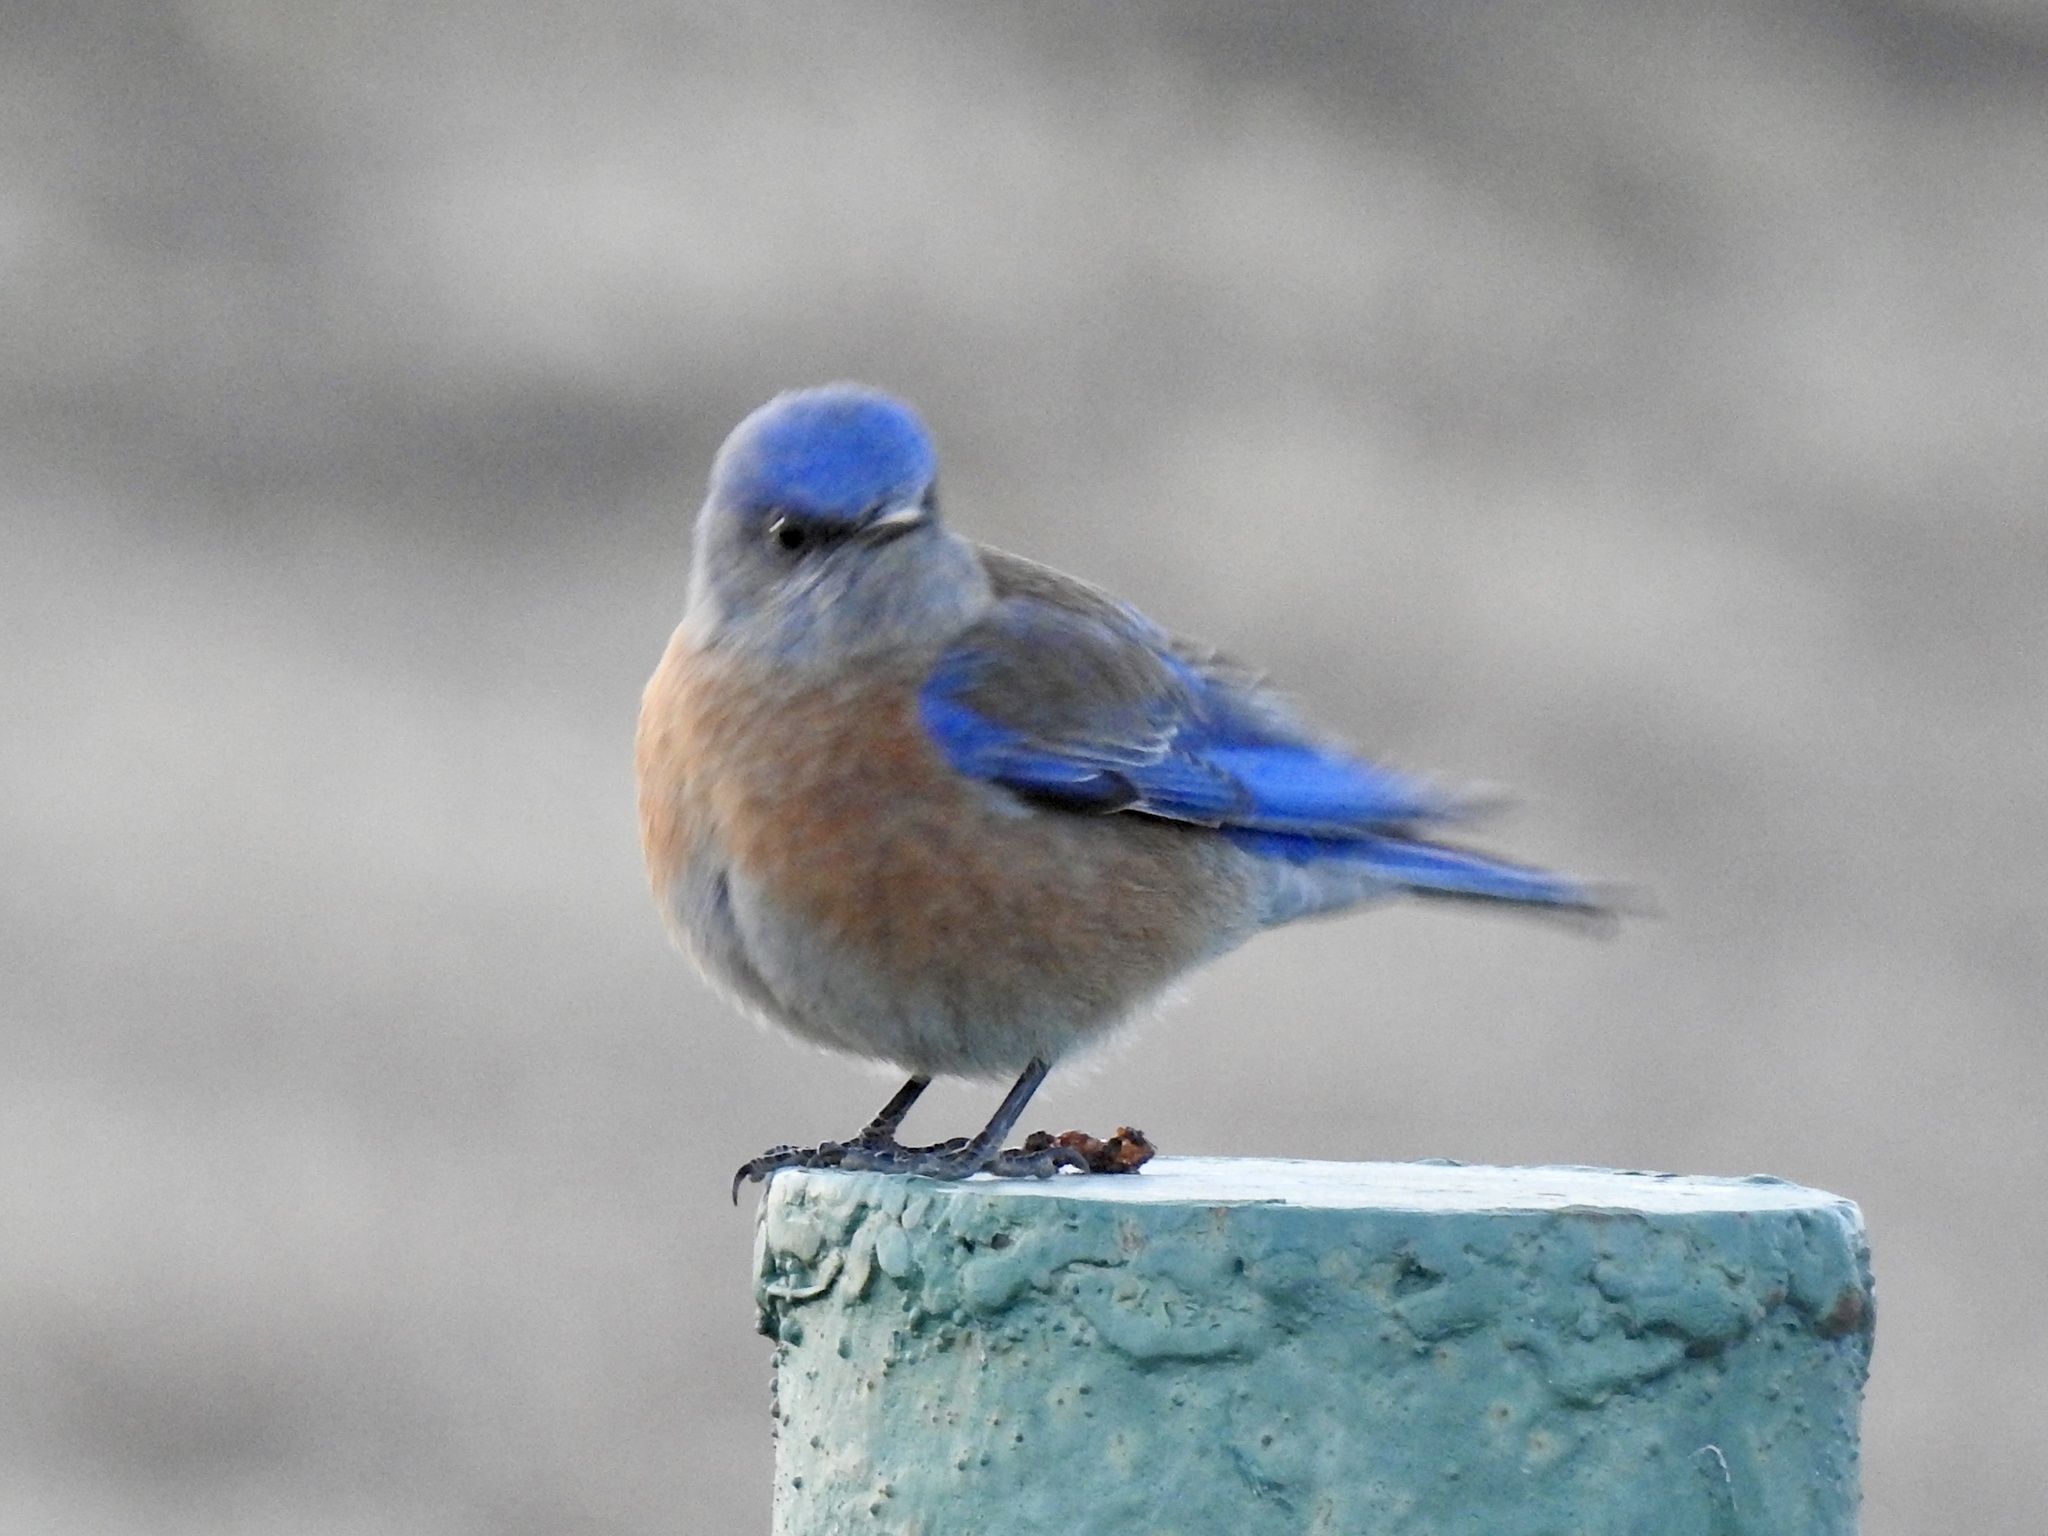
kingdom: Animalia
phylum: Chordata
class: Aves
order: Passeriformes
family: Turdidae
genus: Sialia
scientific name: Sialia mexicana
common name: Western bluebird
